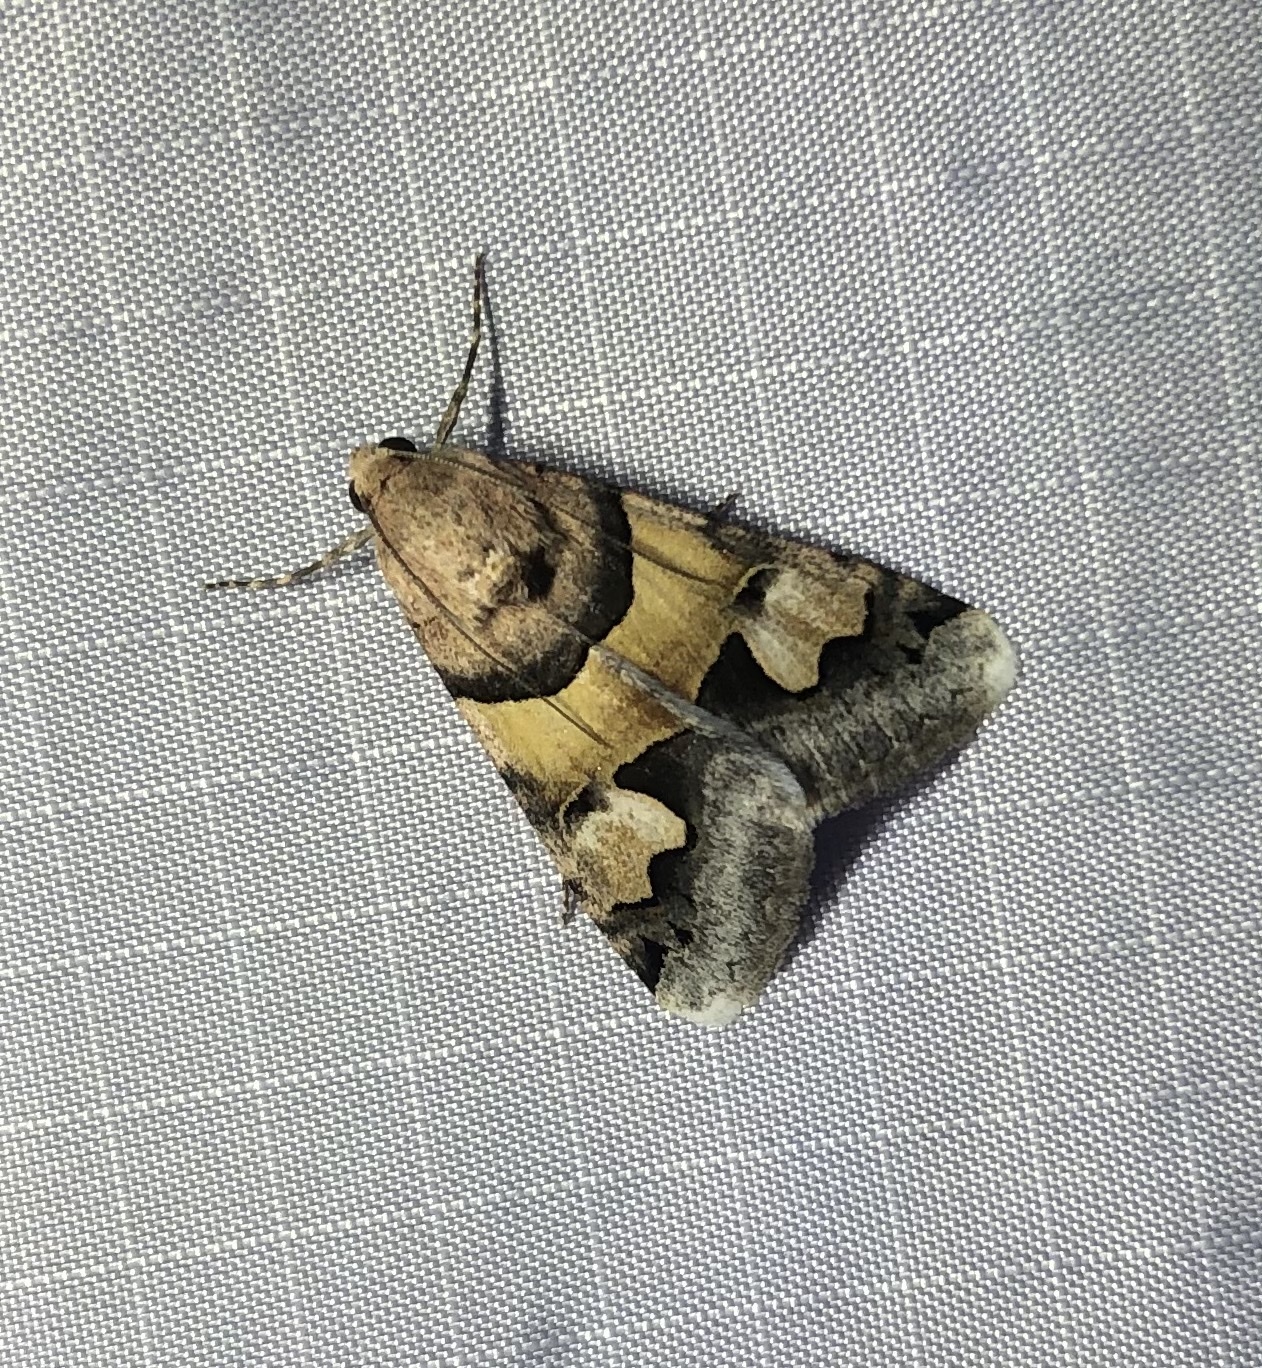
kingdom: Animalia
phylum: Arthropoda
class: Insecta
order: Lepidoptera
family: Erebidae
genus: Drasteria
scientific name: Drasteria pallescens
